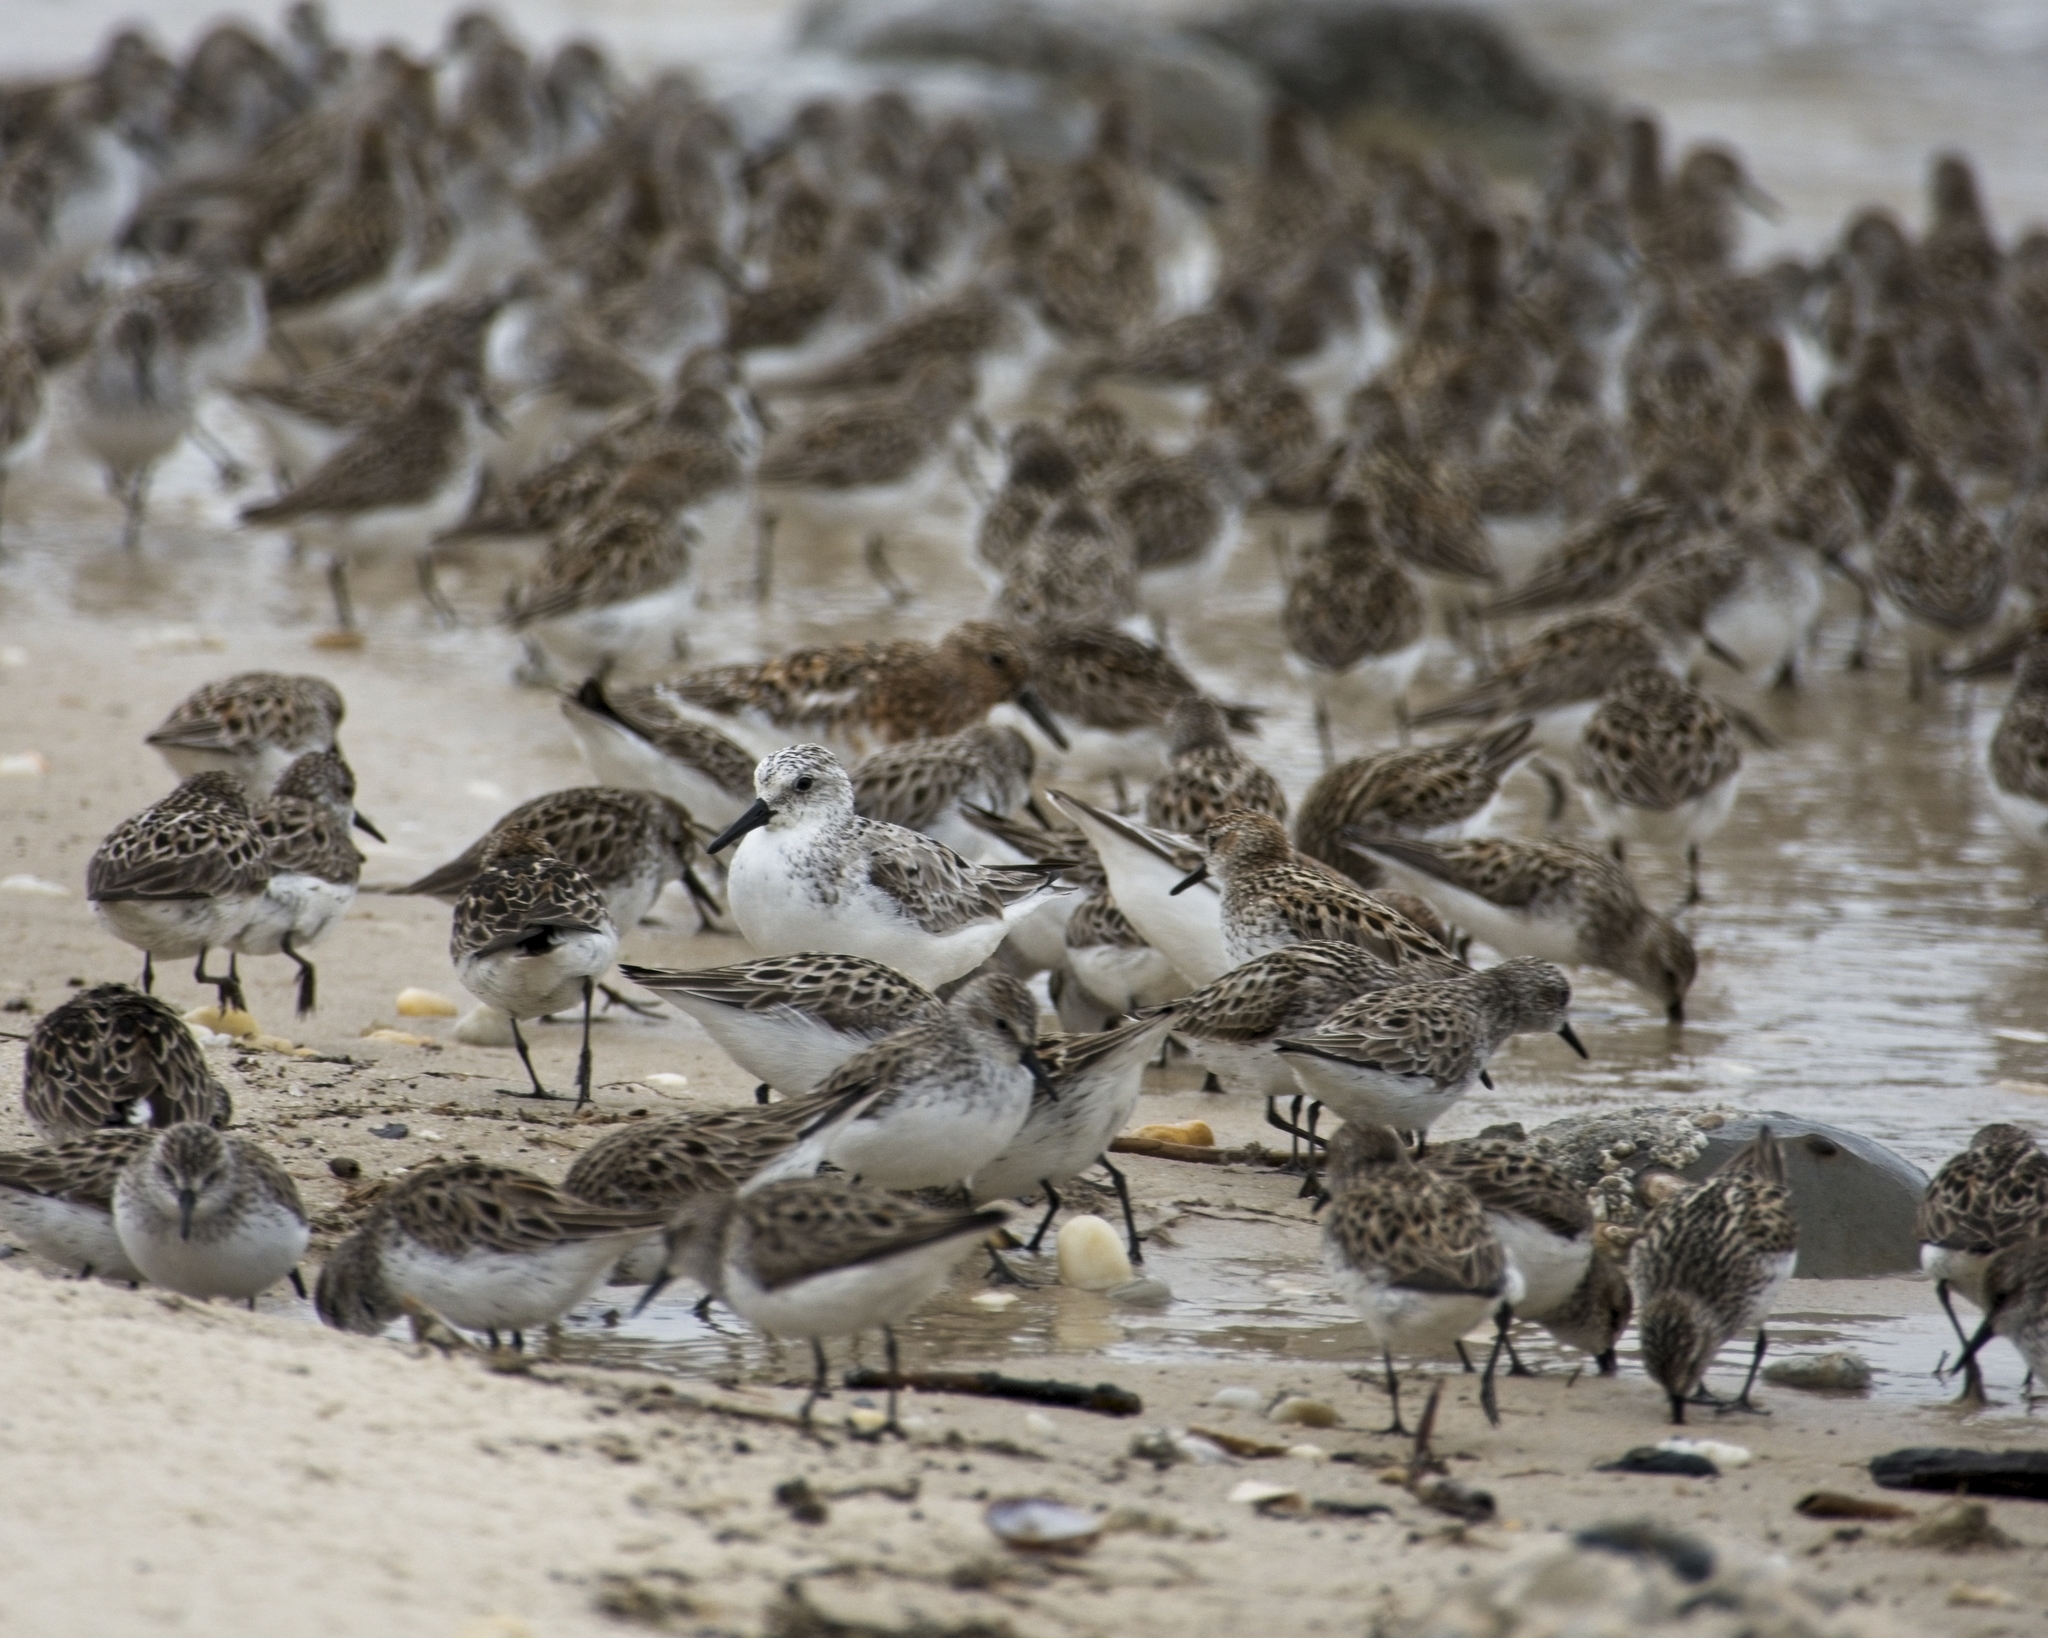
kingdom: Animalia
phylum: Chordata
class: Aves
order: Charadriiformes
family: Scolopacidae
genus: Calidris
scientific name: Calidris alba
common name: Sanderling
